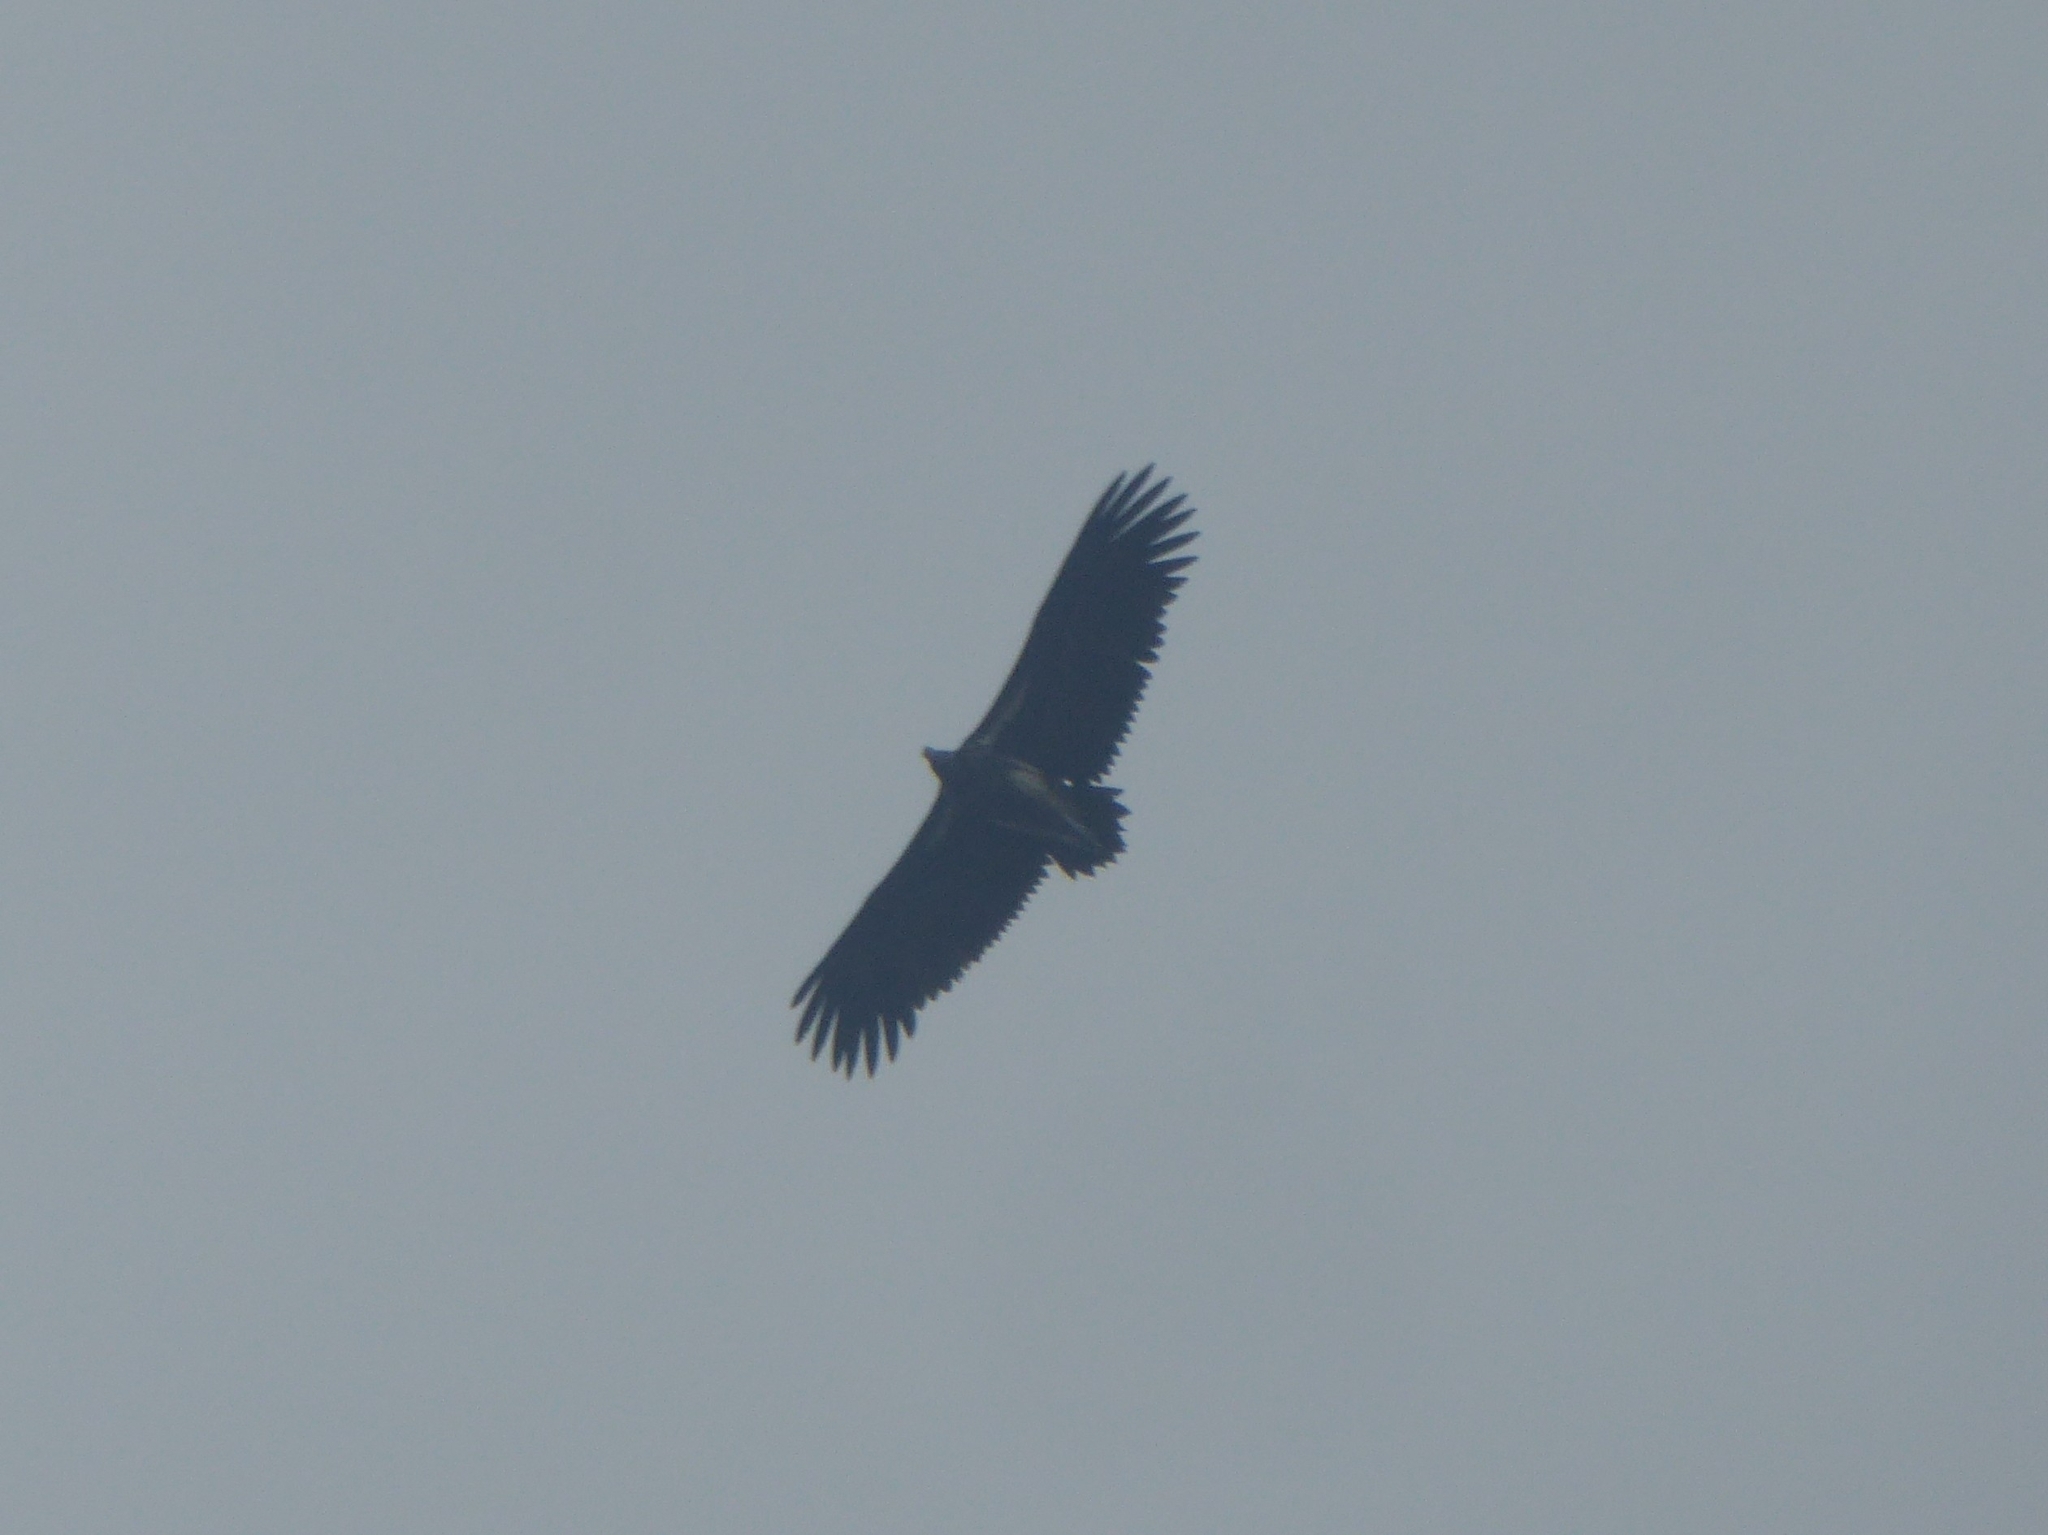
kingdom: Animalia
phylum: Chordata
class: Aves
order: Accipitriformes
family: Accipitridae
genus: Torgos
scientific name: Torgos tracheliotos
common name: Lappet-faced vulture
